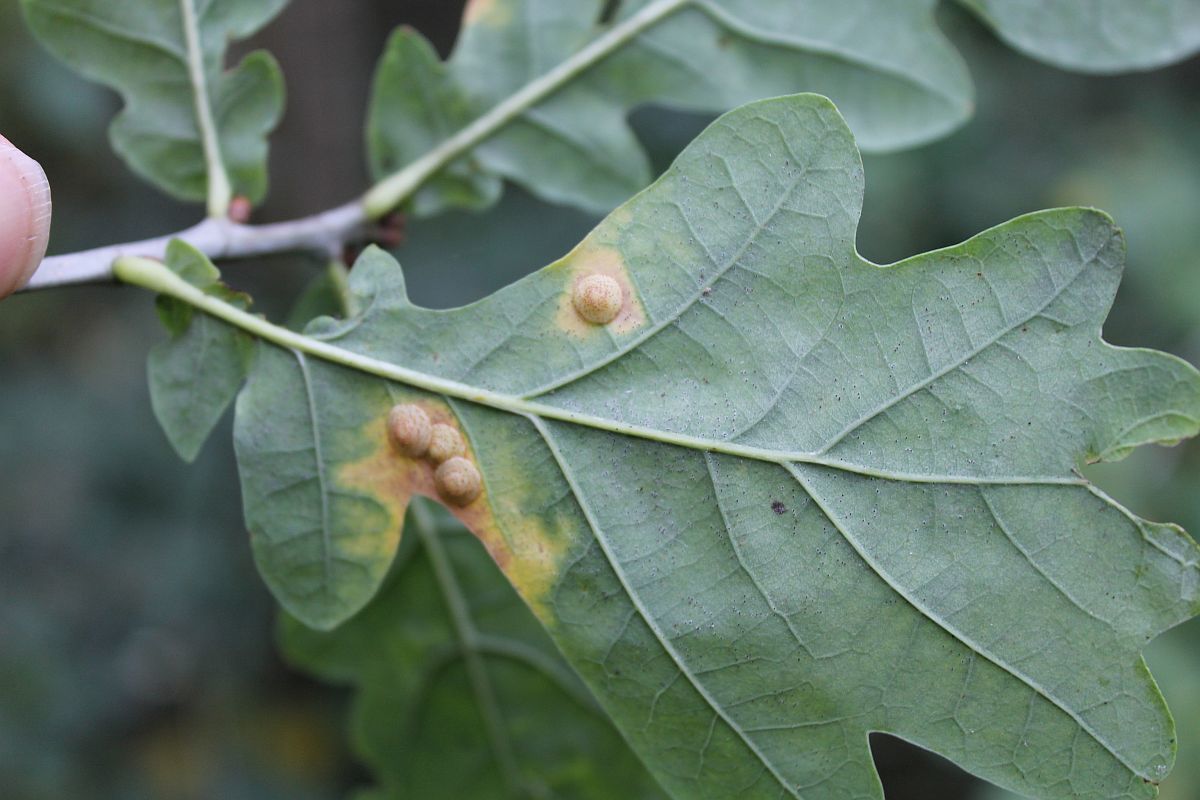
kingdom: Animalia
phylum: Arthropoda
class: Insecta
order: Hymenoptera
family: Cynipidae
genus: Neuroterus
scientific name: Neuroterus quercusbaccarum
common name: Common spangle gall
